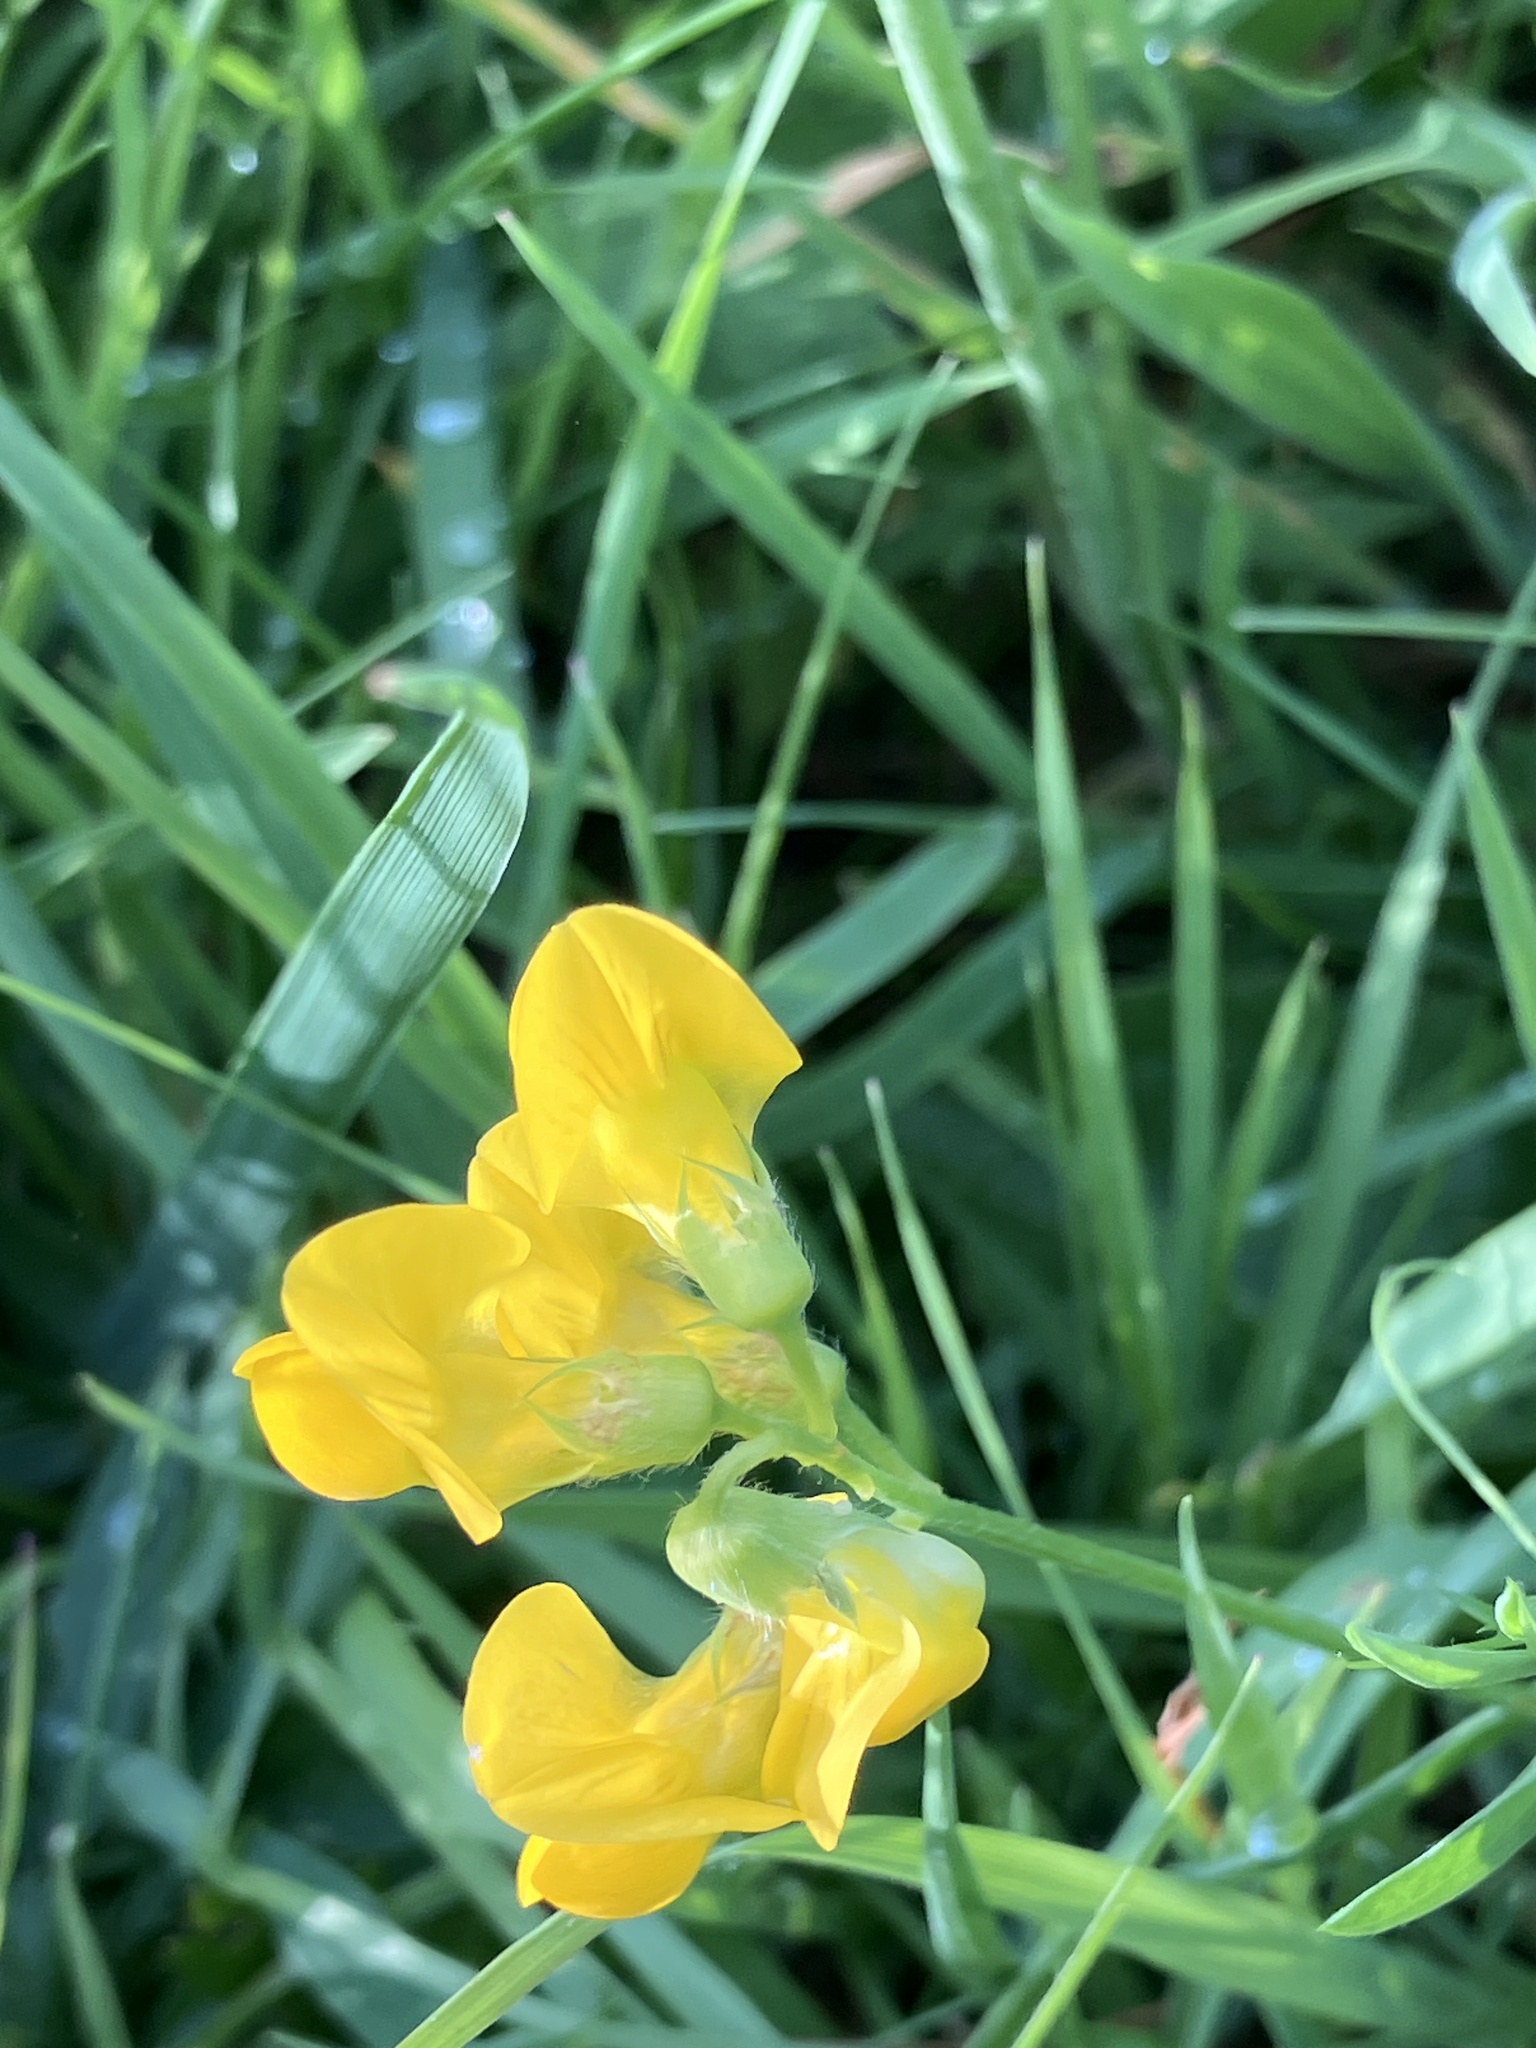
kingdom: Plantae
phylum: Tracheophyta
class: Magnoliopsida
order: Fabales
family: Fabaceae
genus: Lathyrus
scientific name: Lathyrus pratensis
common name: Meadow vetchling
